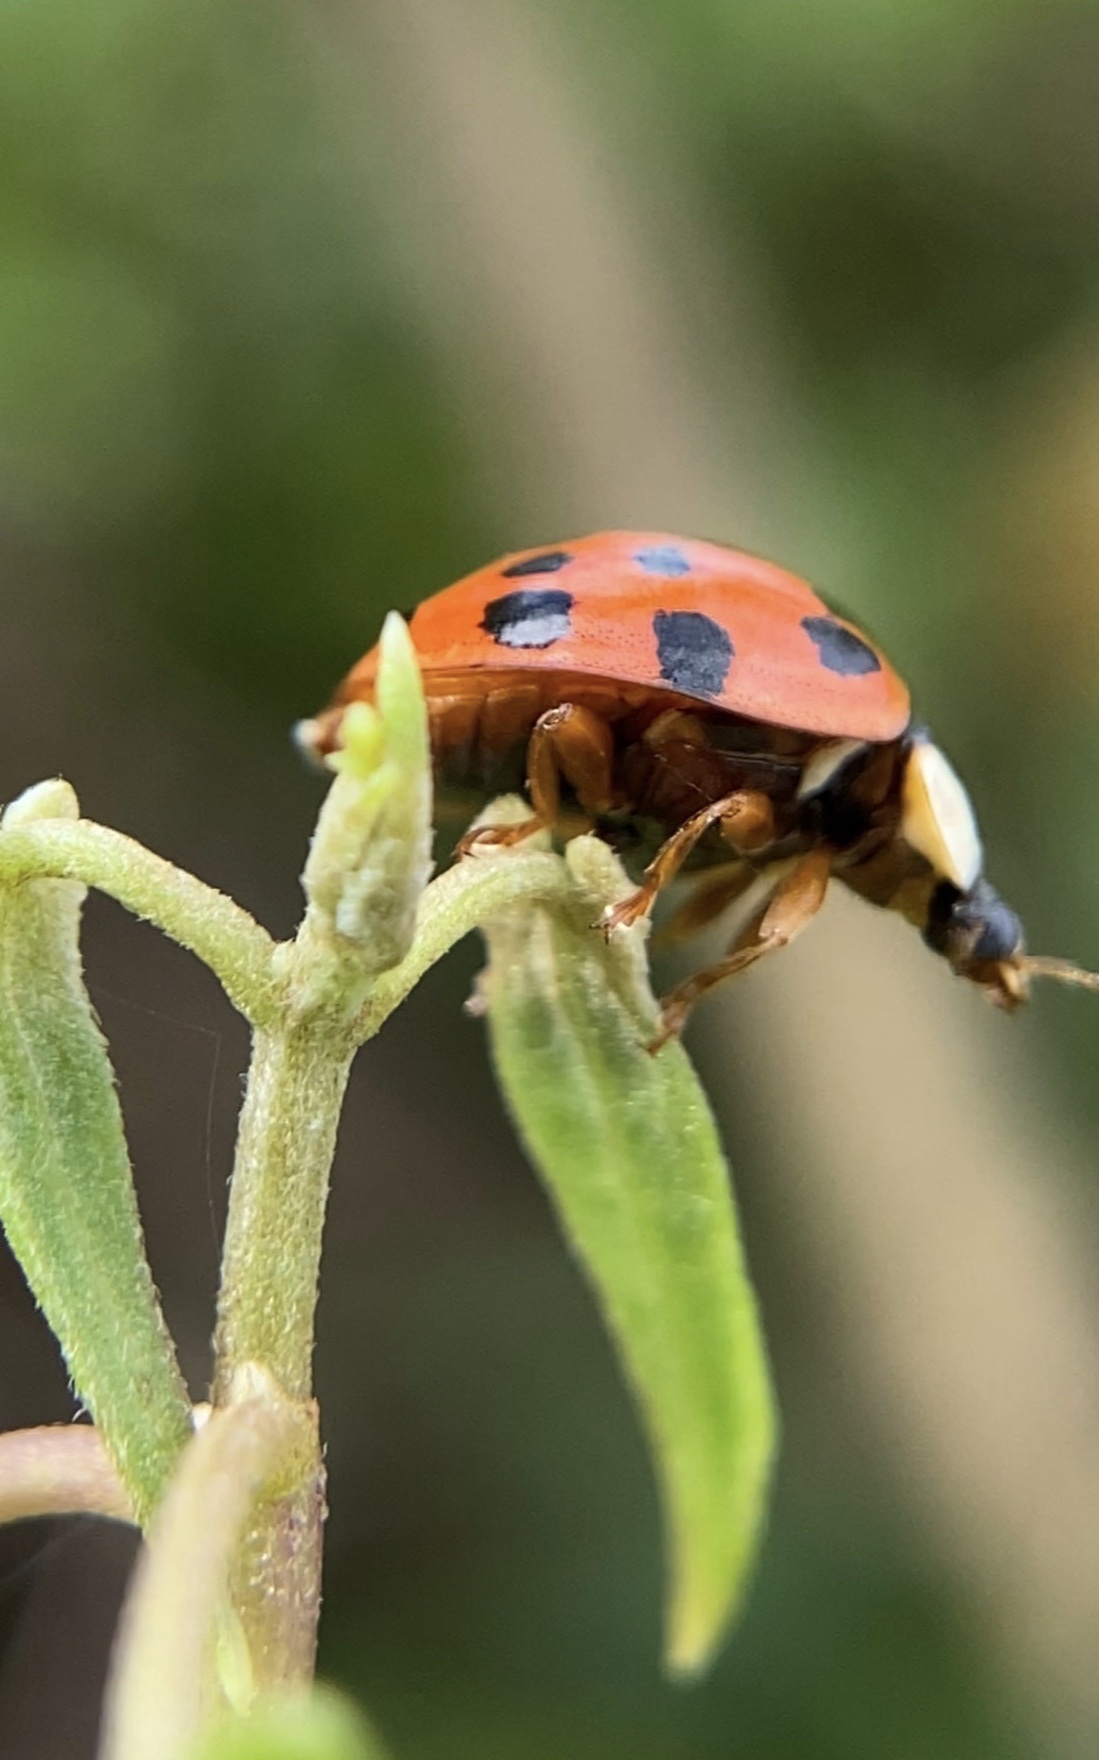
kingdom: Animalia
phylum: Arthropoda
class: Insecta
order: Coleoptera
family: Coccinellidae
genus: Harmonia
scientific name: Harmonia axyridis
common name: Harlequin ladybird
